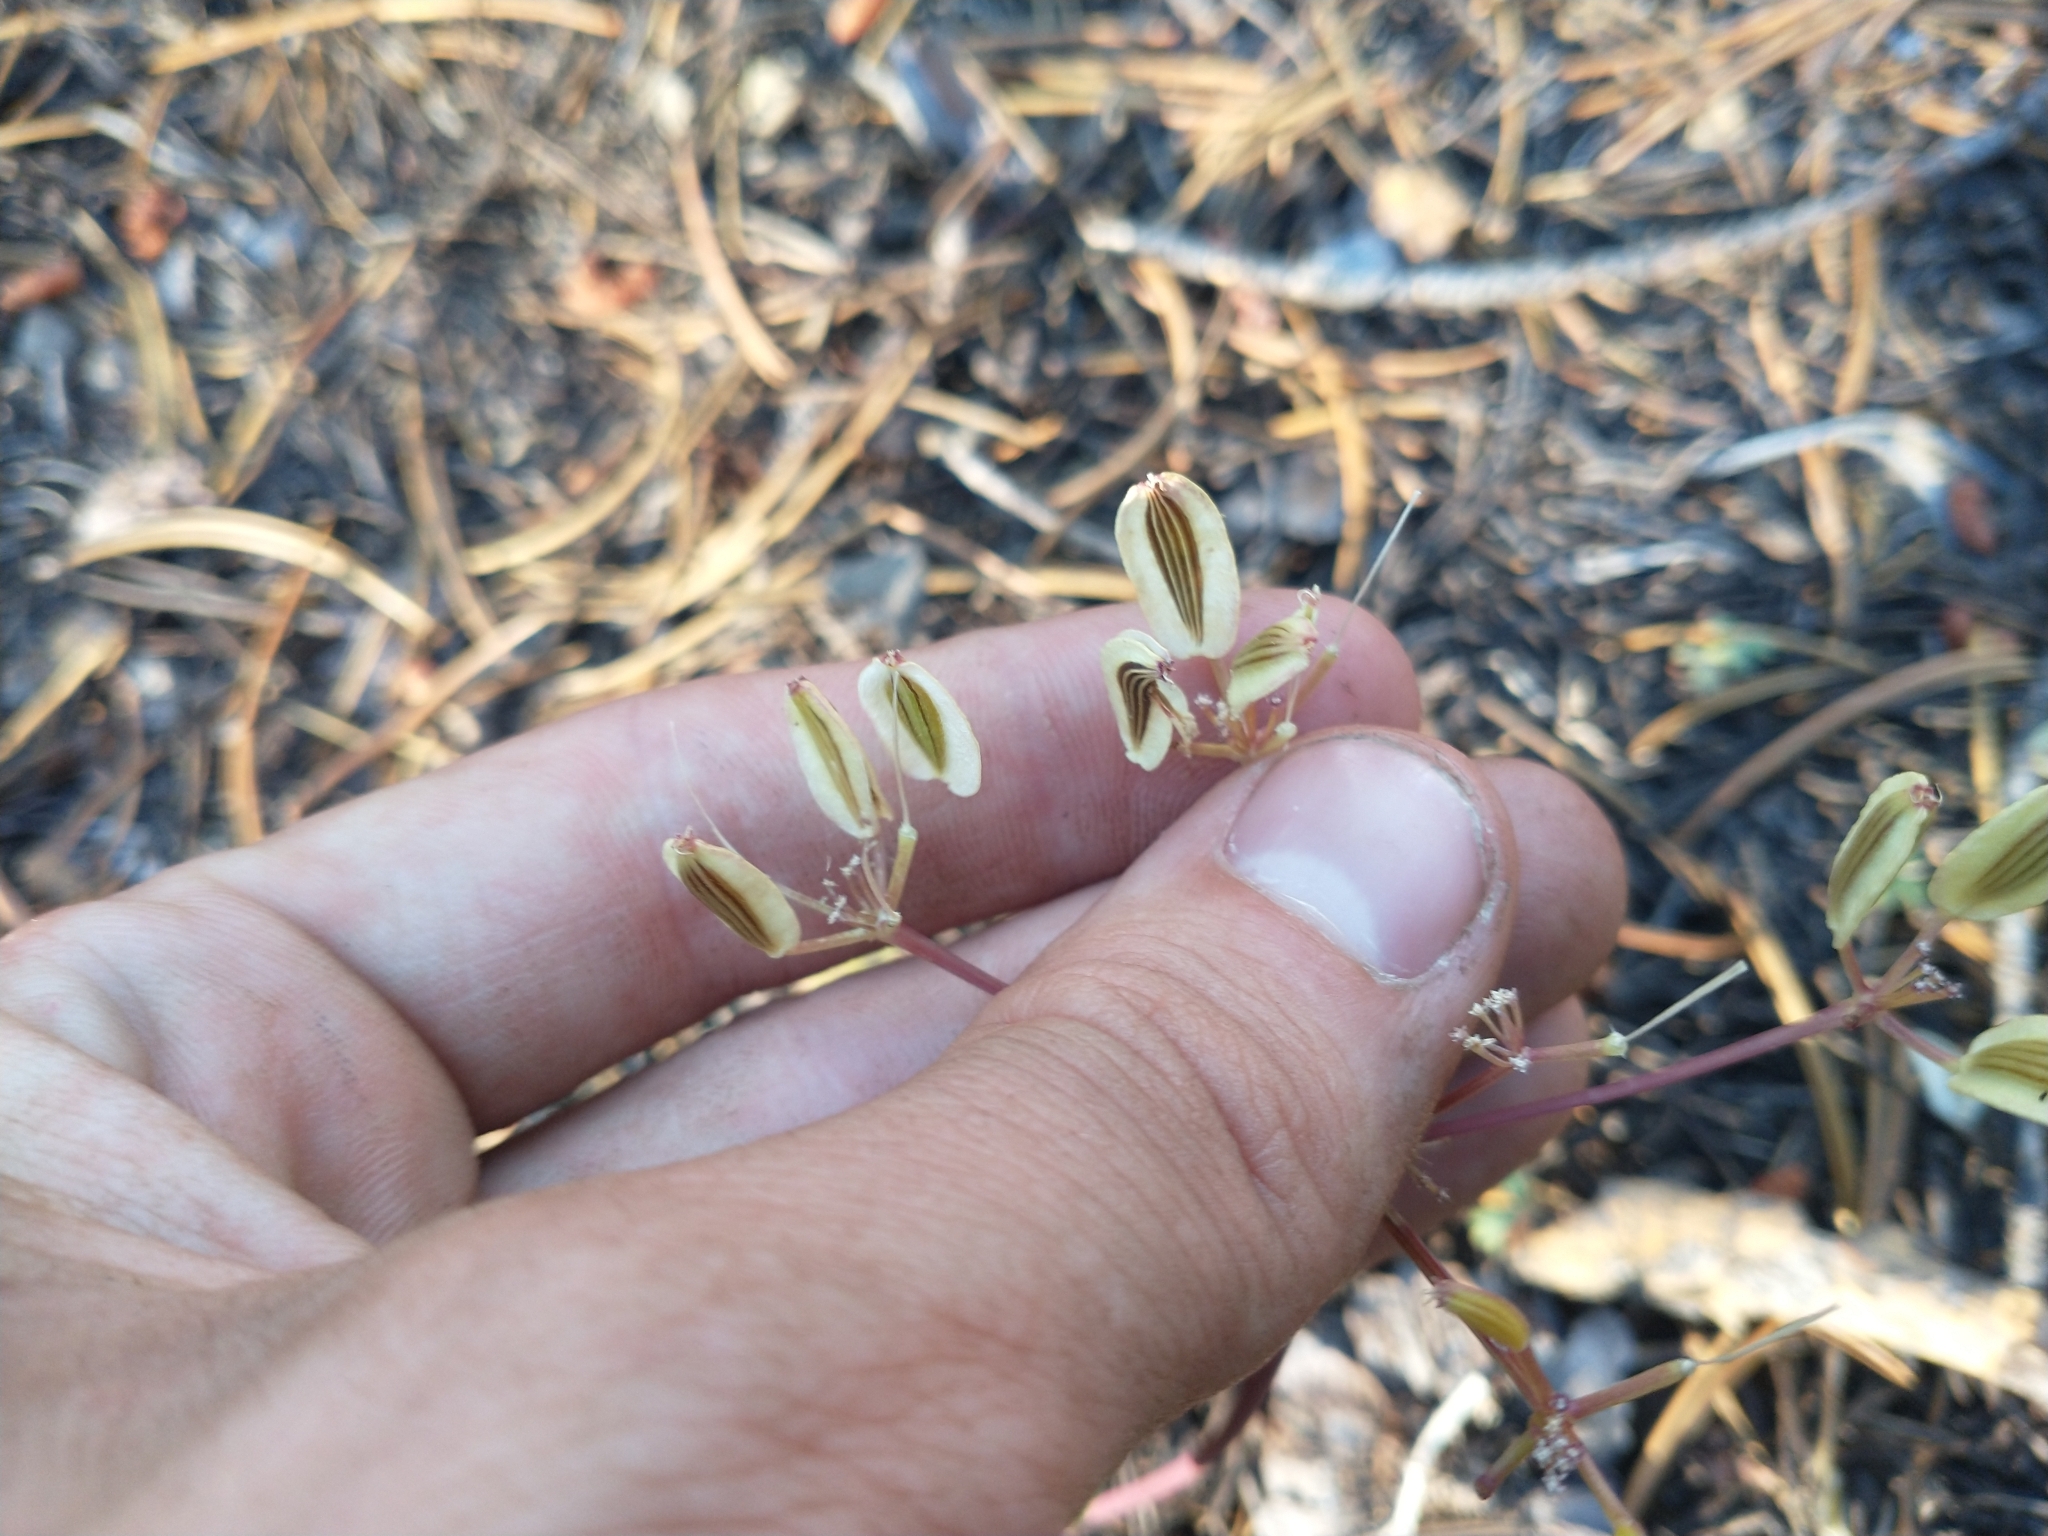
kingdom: Plantae
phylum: Tracheophyta
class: Magnoliopsida
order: Apiales
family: Apiaceae
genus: Lomatium
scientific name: Lomatium martindalei
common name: Cascade desert-parsley
